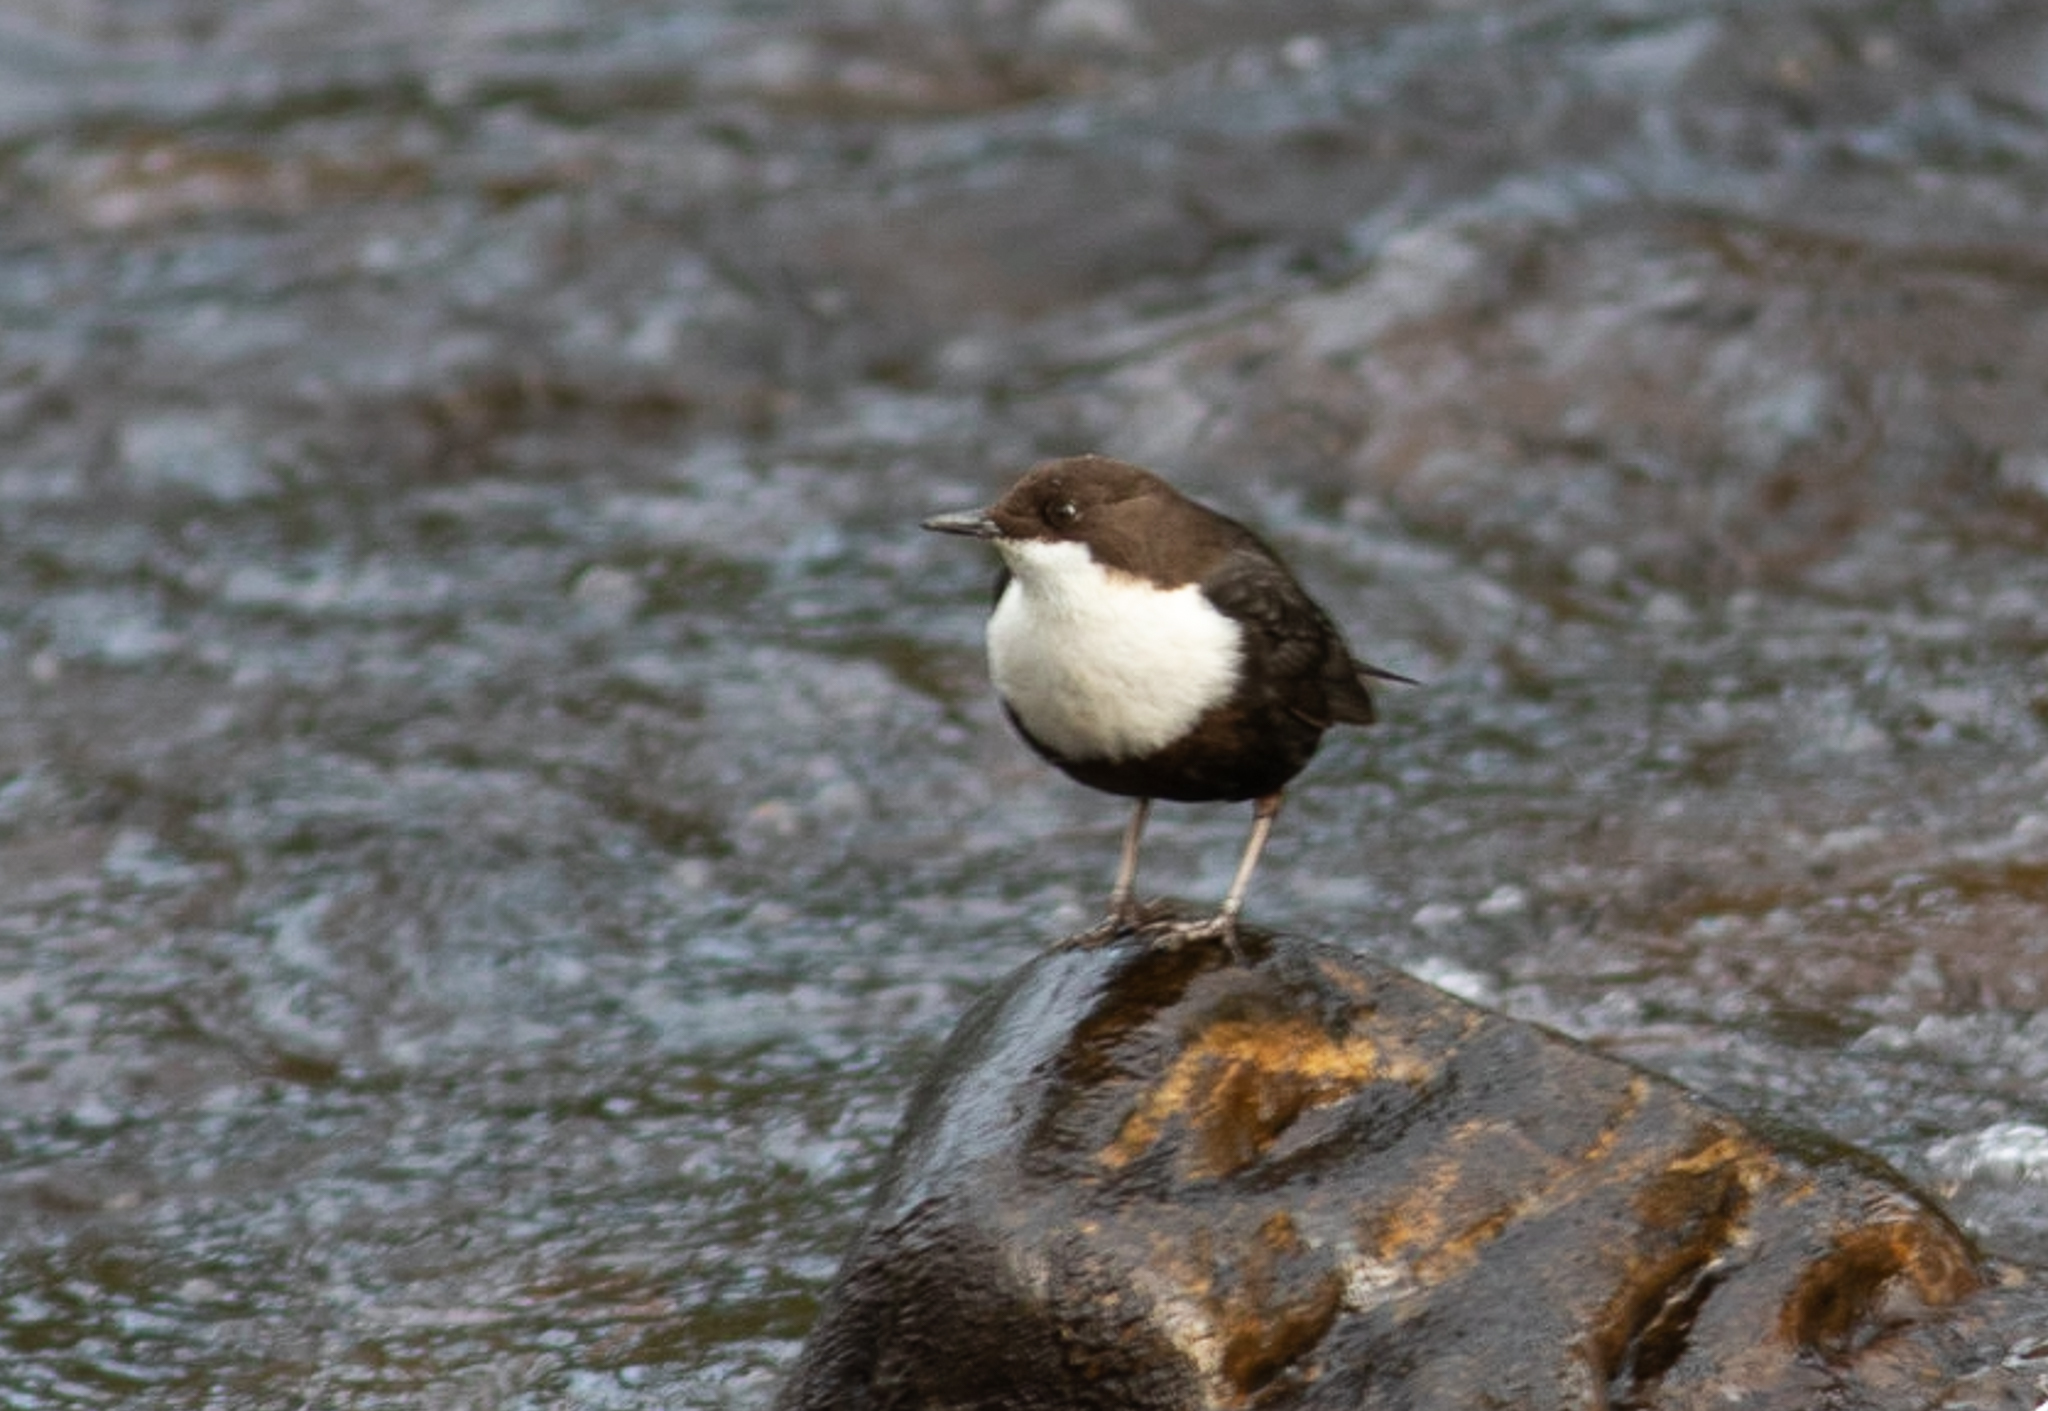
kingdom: Animalia
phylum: Chordata
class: Aves
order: Passeriformes
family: Cinclidae
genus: Cinclus
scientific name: Cinclus cinclus
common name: White-throated dipper
